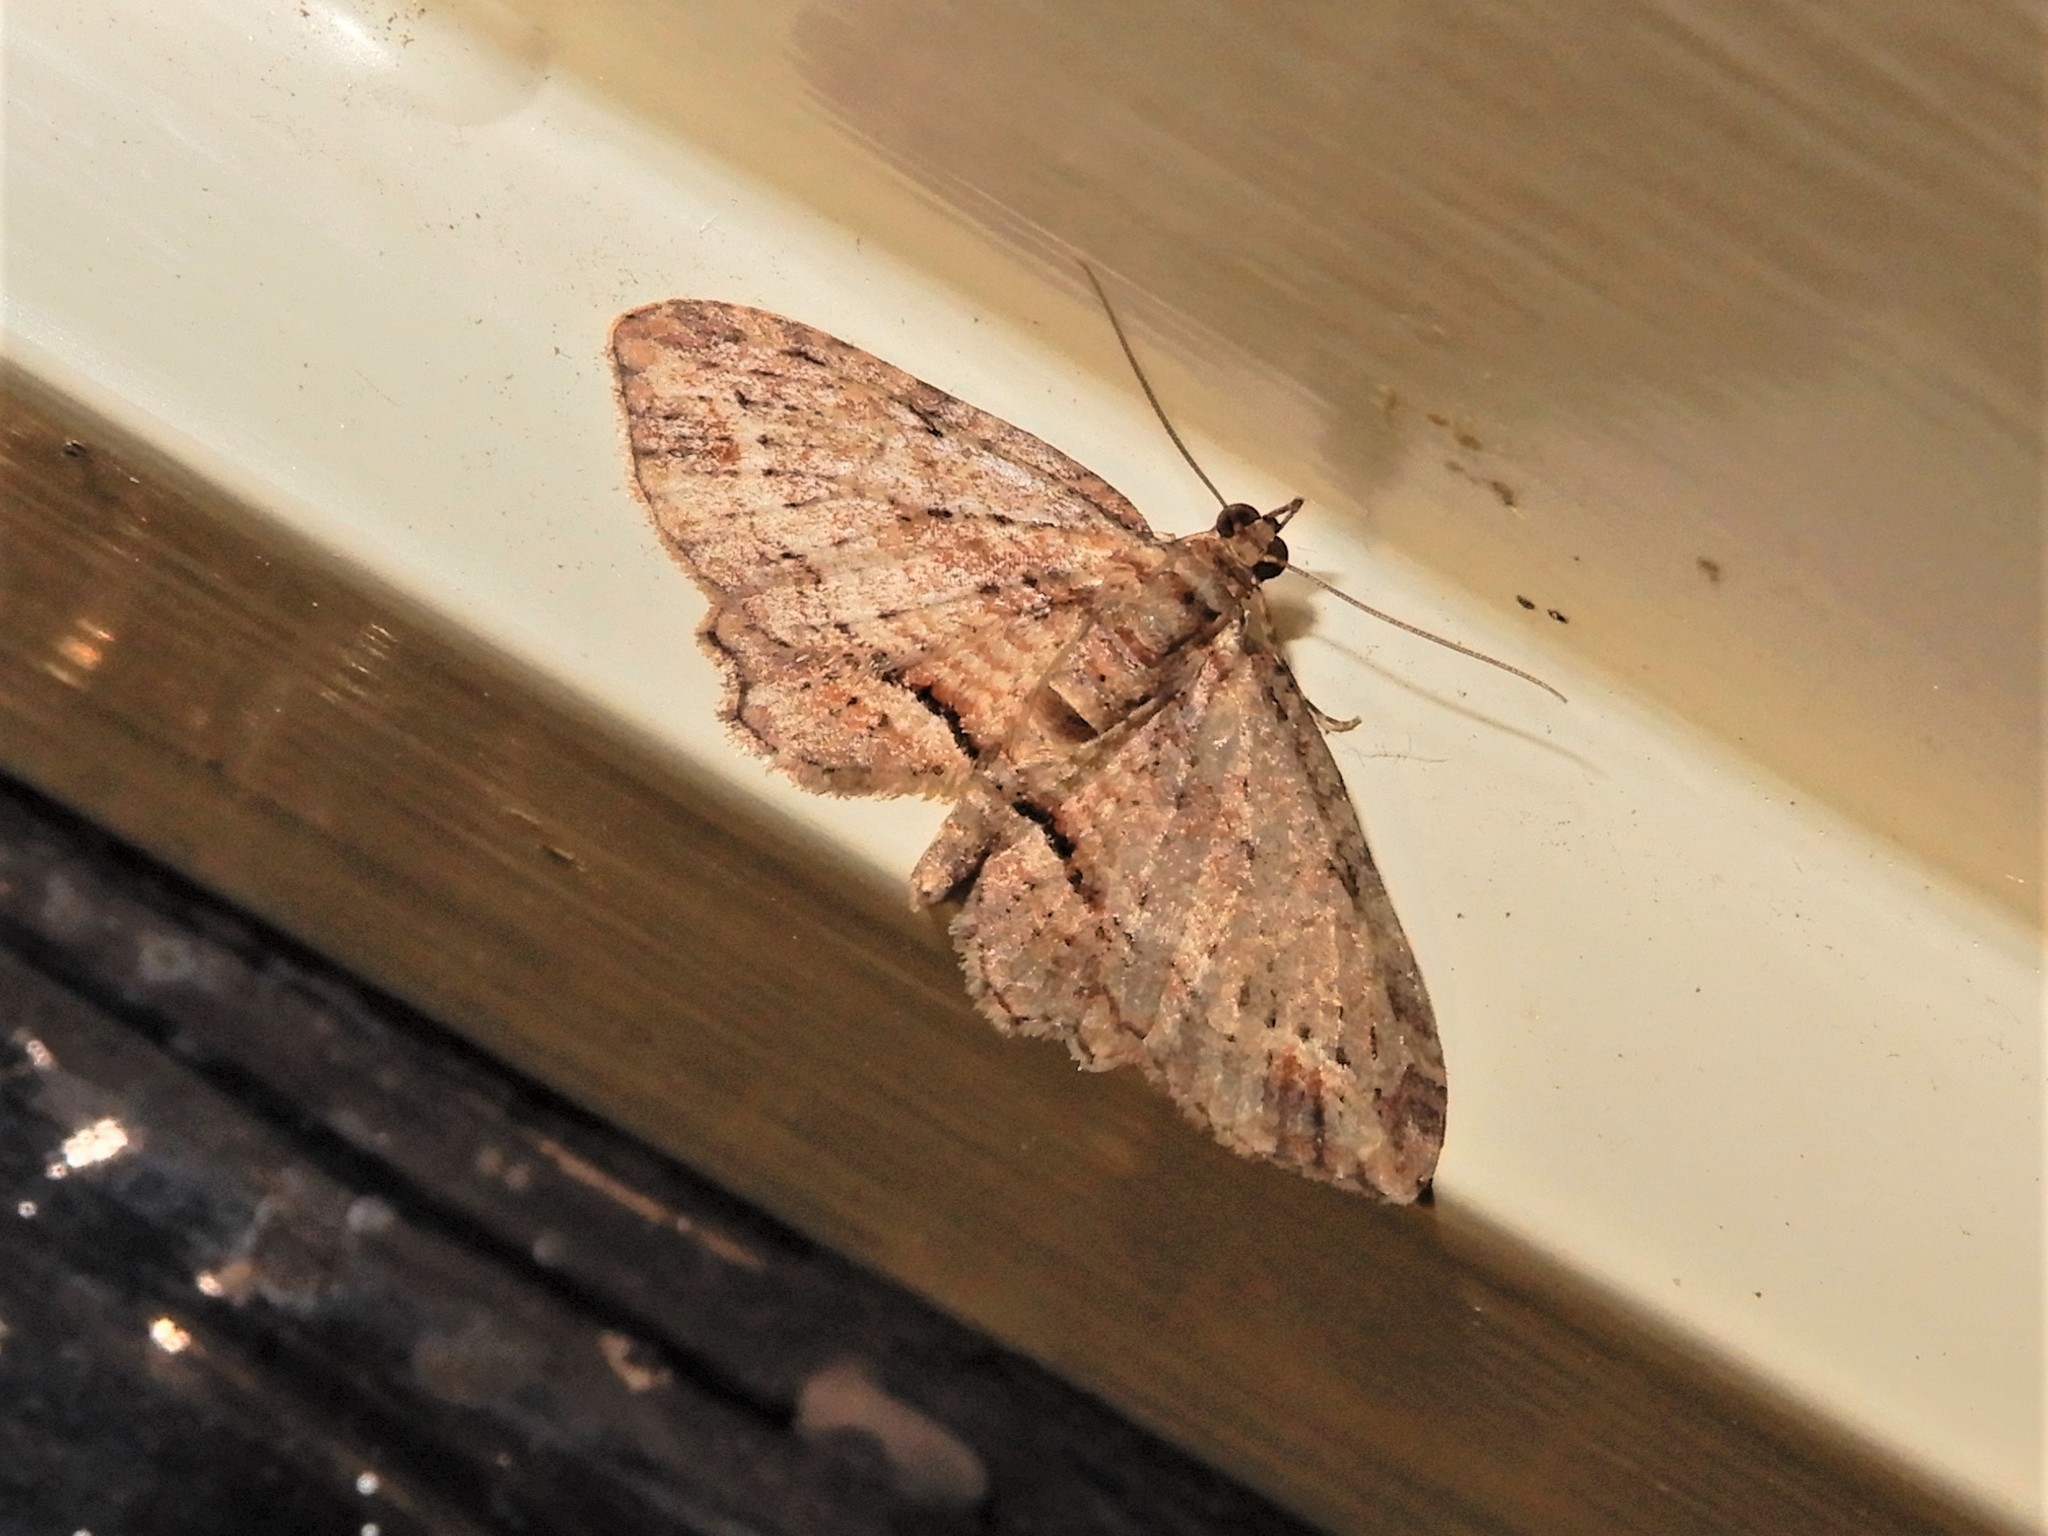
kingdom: Animalia
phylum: Arthropoda
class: Insecta
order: Lepidoptera
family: Geometridae
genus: Chloroclystis
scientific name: Chloroclystis filata
